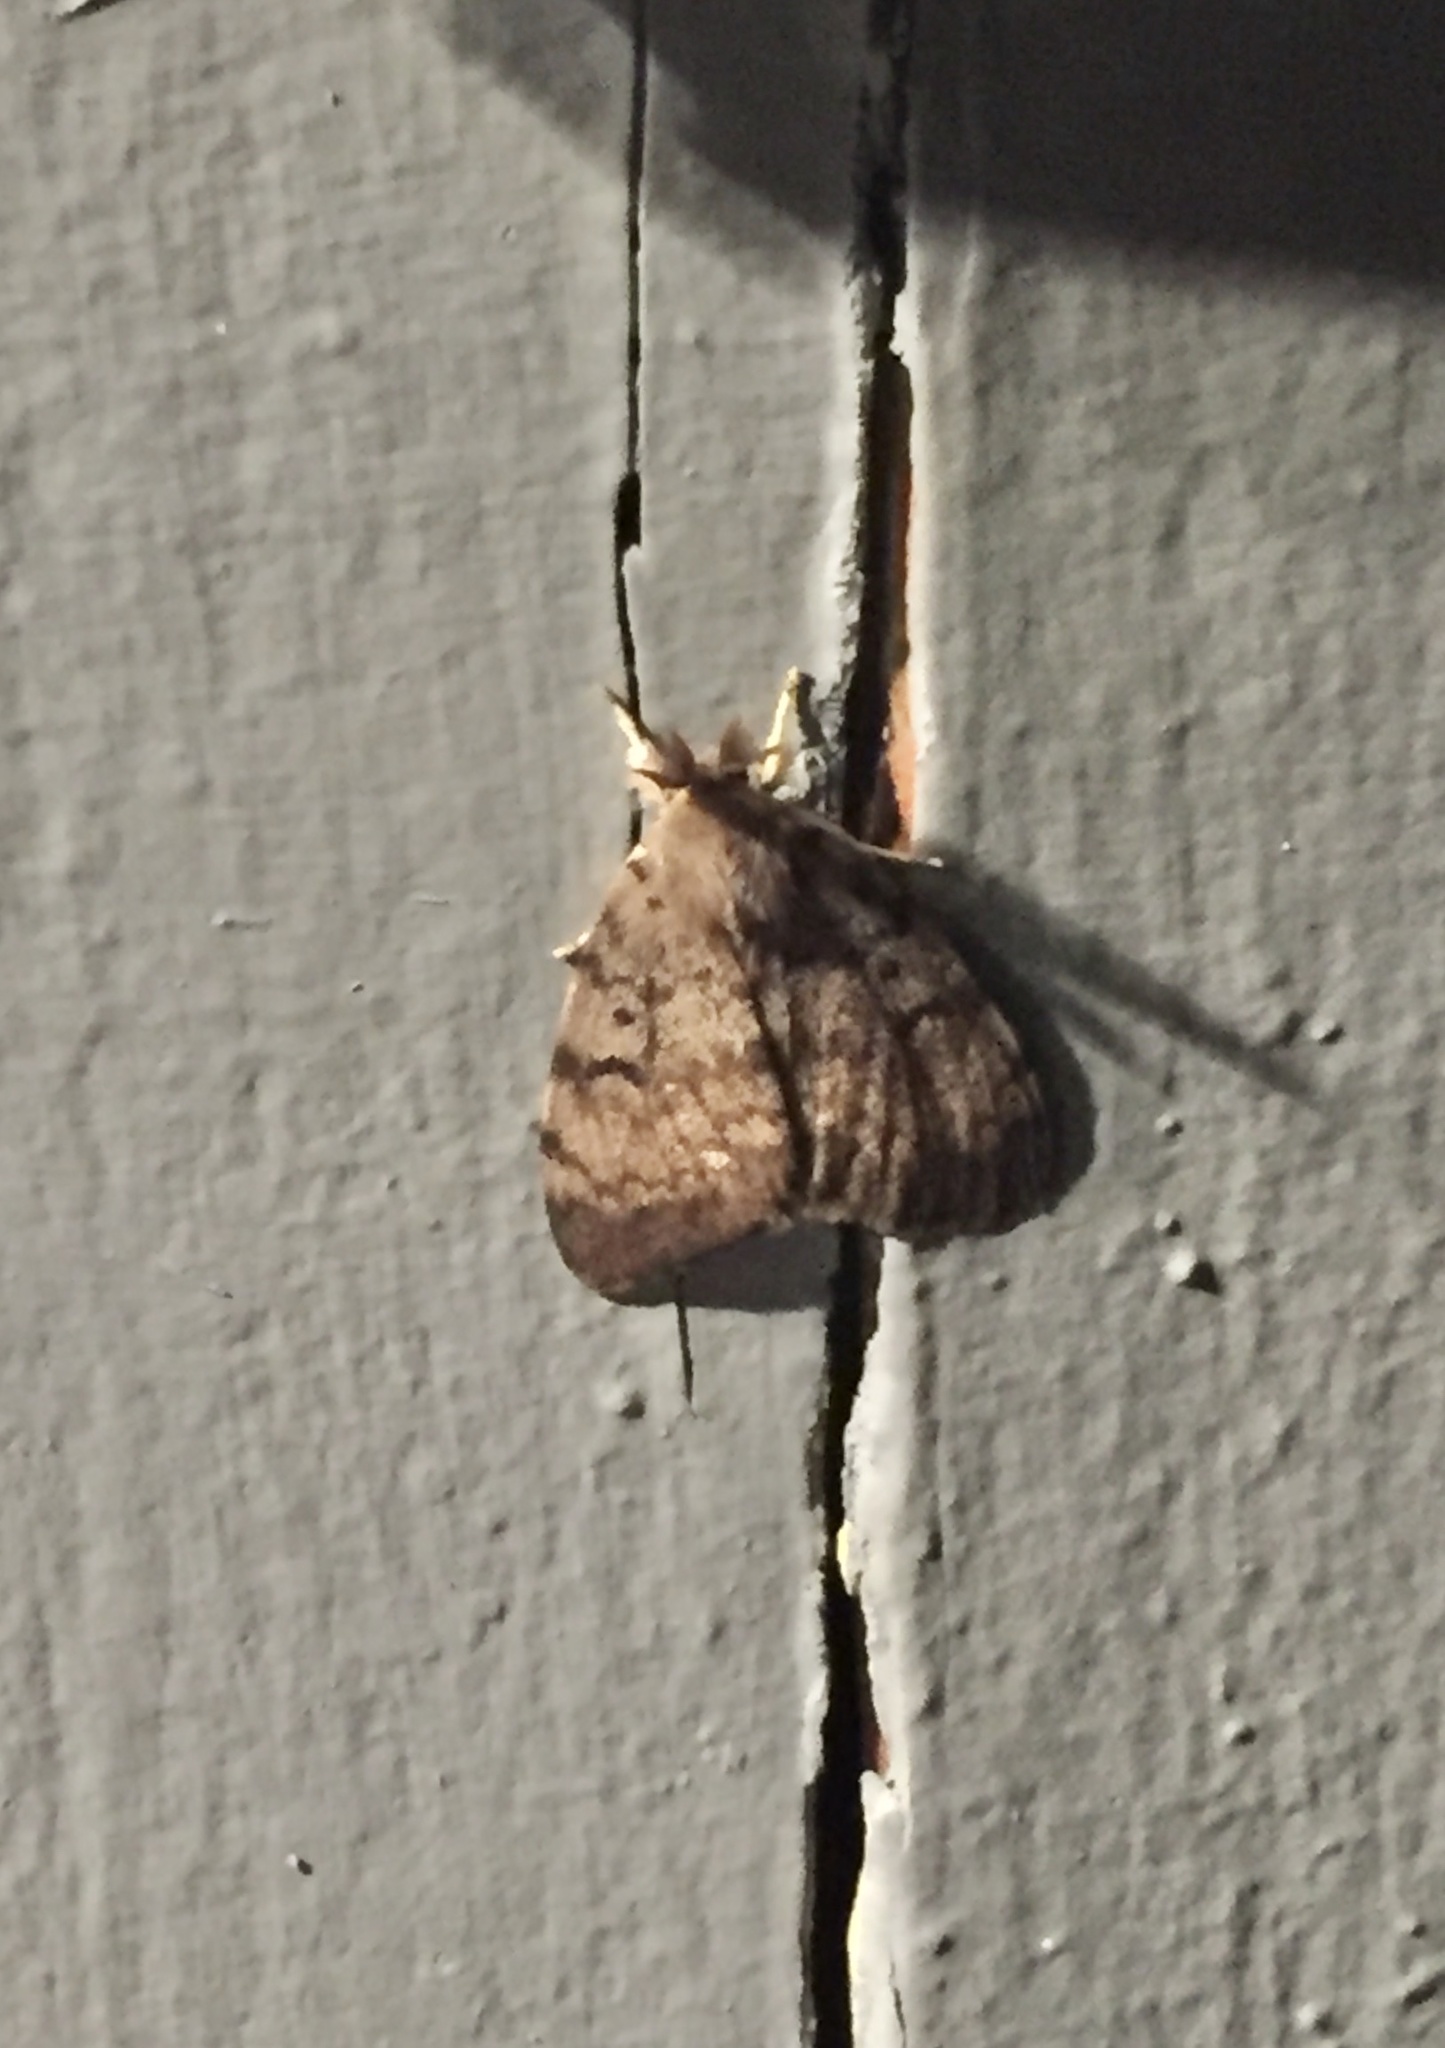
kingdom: Animalia
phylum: Arthropoda
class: Insecta
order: Lepidoptera
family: Erebidae
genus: Lymantria
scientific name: Lymantria dispar
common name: Gypsy moth
